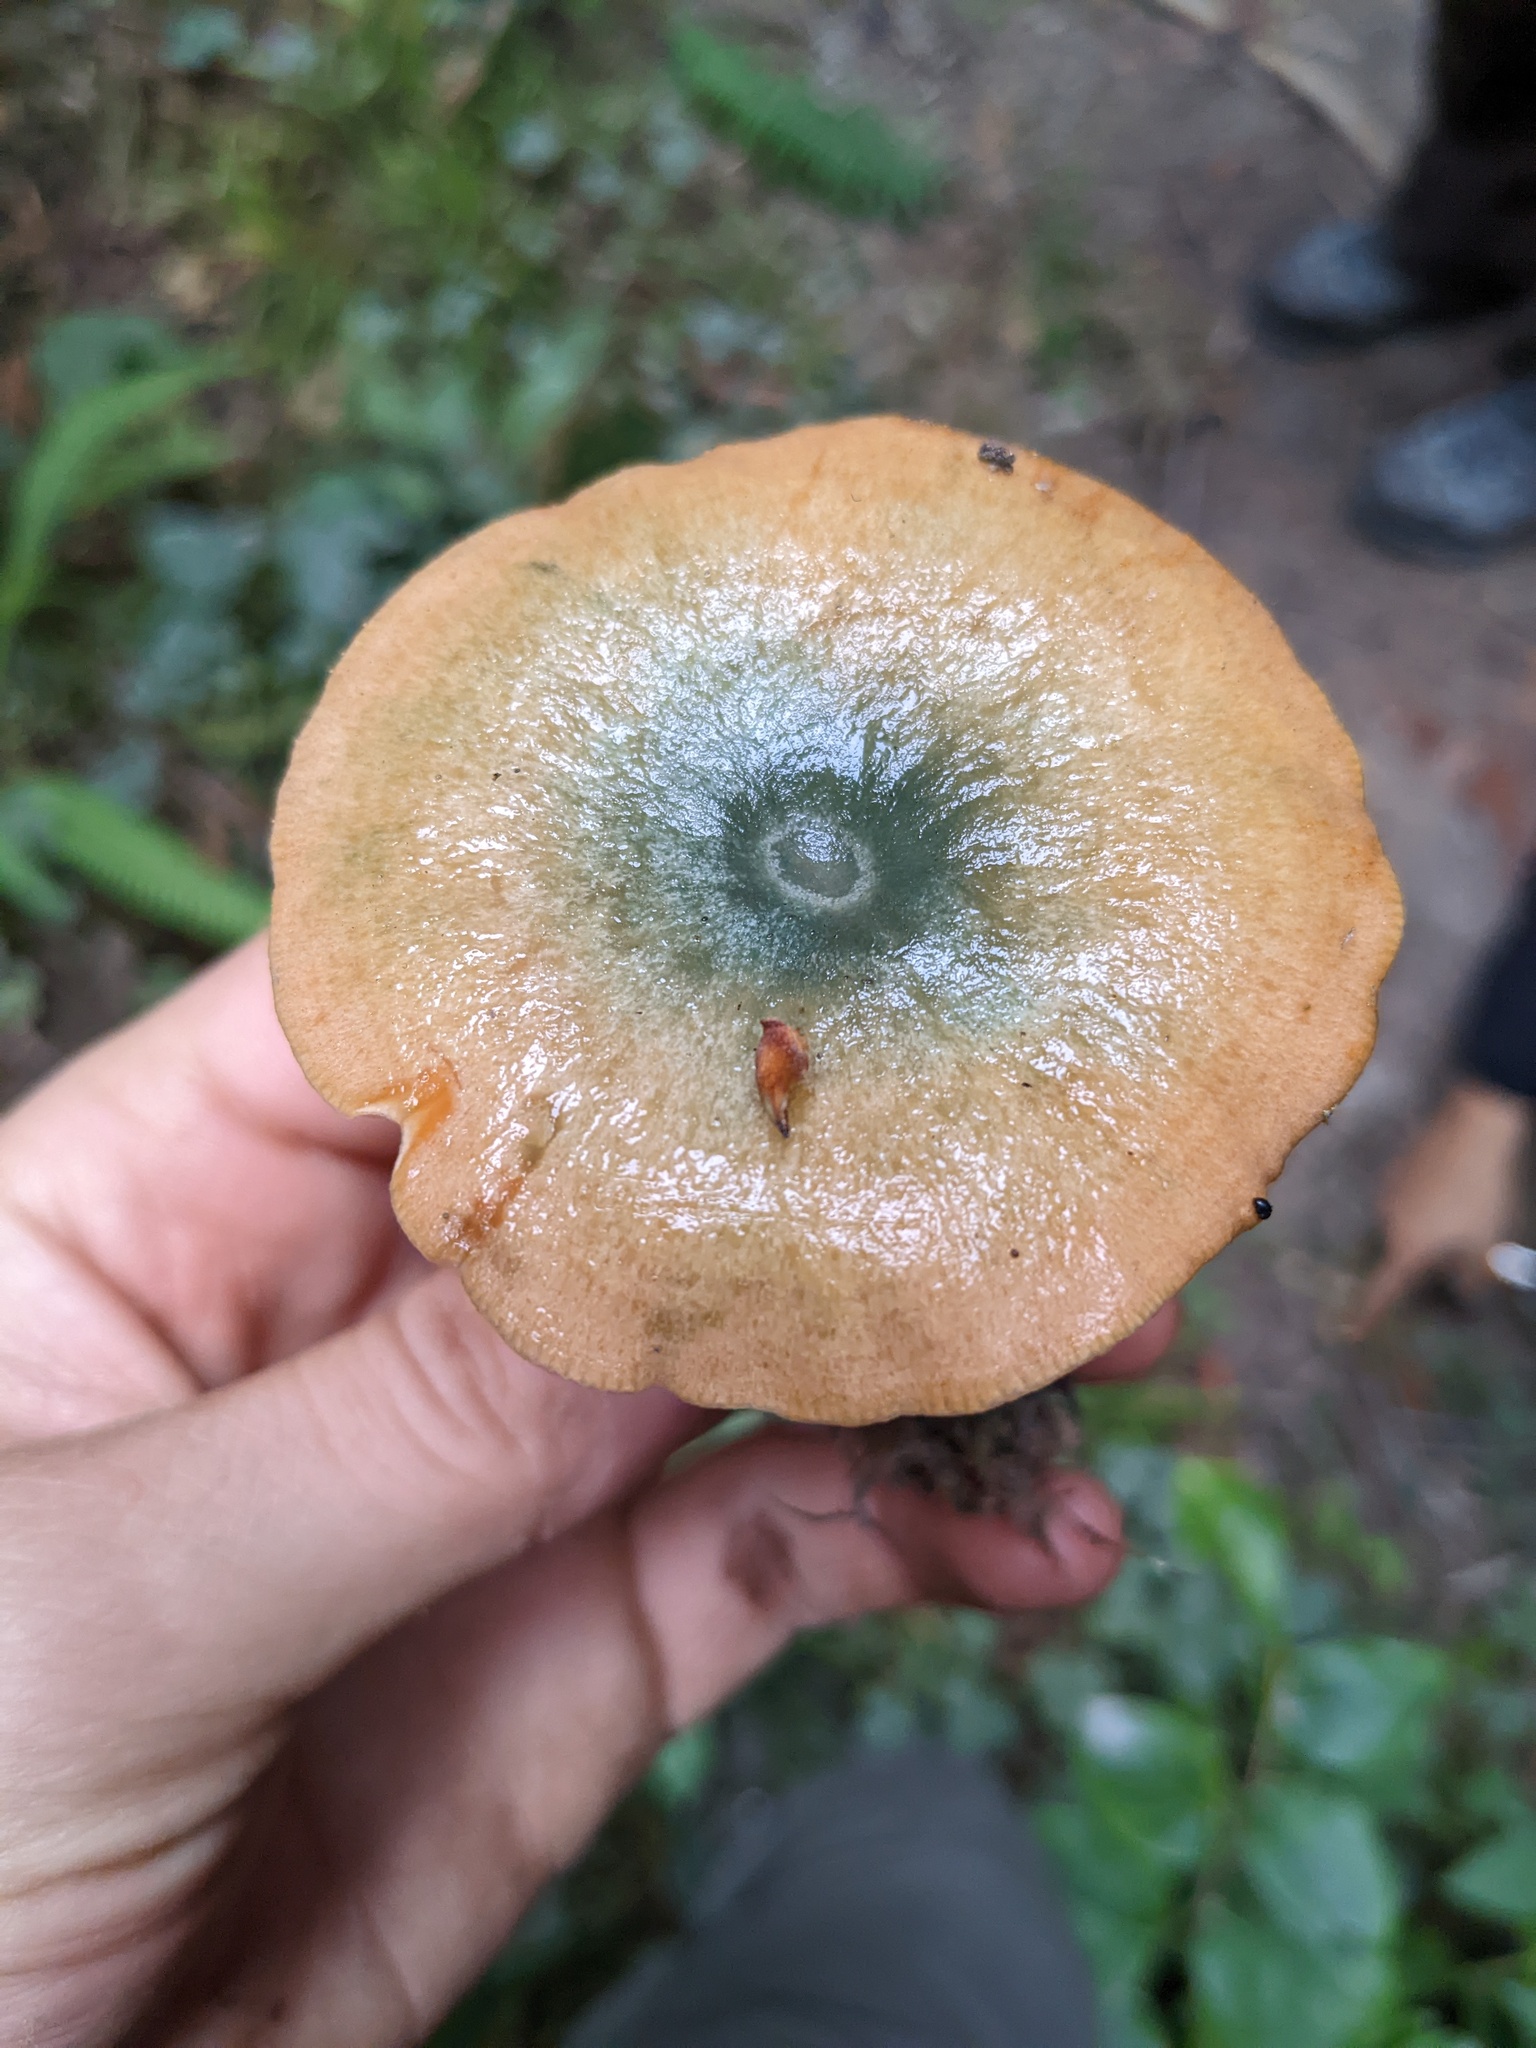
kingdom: Fungi
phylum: Basidiomycota
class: Agaricomycetes
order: Russulales
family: Russulaceae
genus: Lactarius
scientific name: Lactarius rubrilacteus
